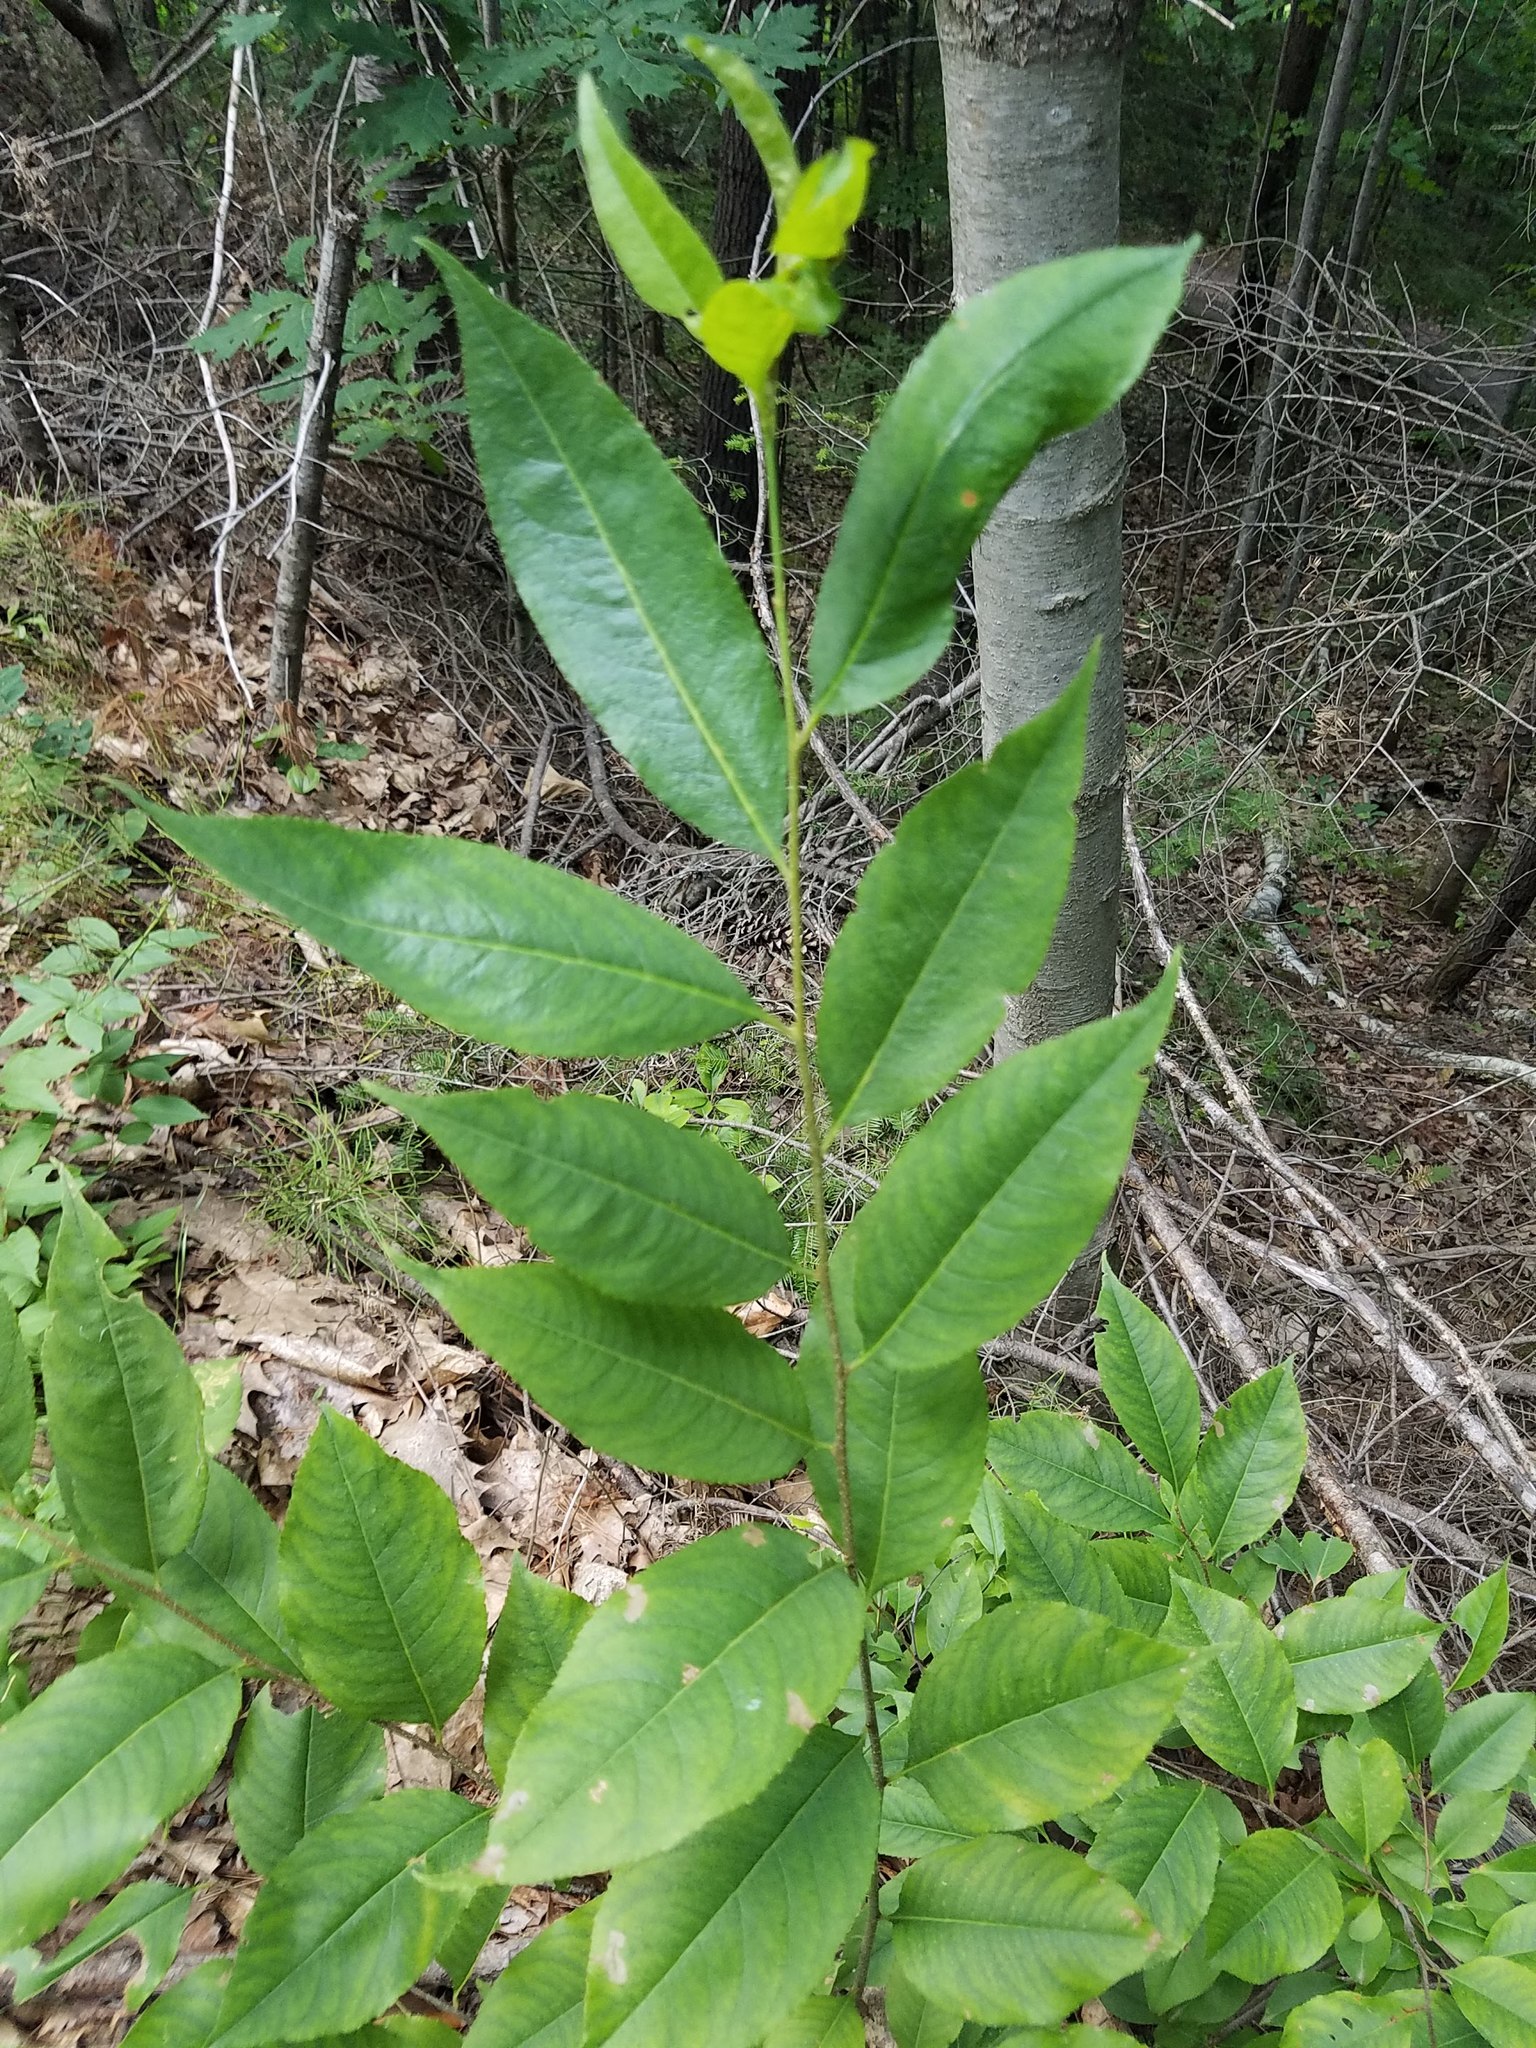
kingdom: Plantae
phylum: Tracheophyta
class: Magnoliopsida
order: Rosales
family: Rosaceae
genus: Prunus
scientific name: Prunus serotina
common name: Black cherry
